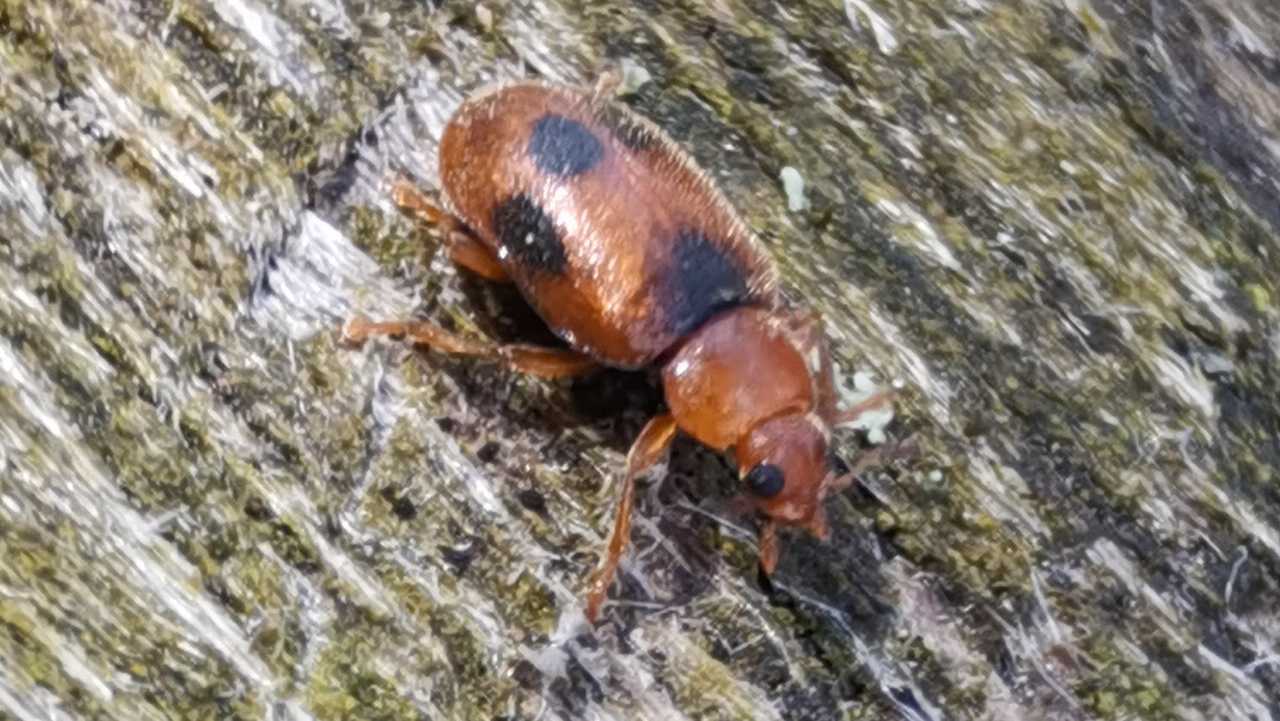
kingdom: Animalia
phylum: Arthropoda
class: Insecta
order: Coleoptera
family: Coccinellidae
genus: Coccidula
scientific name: Coccidula scutellata
